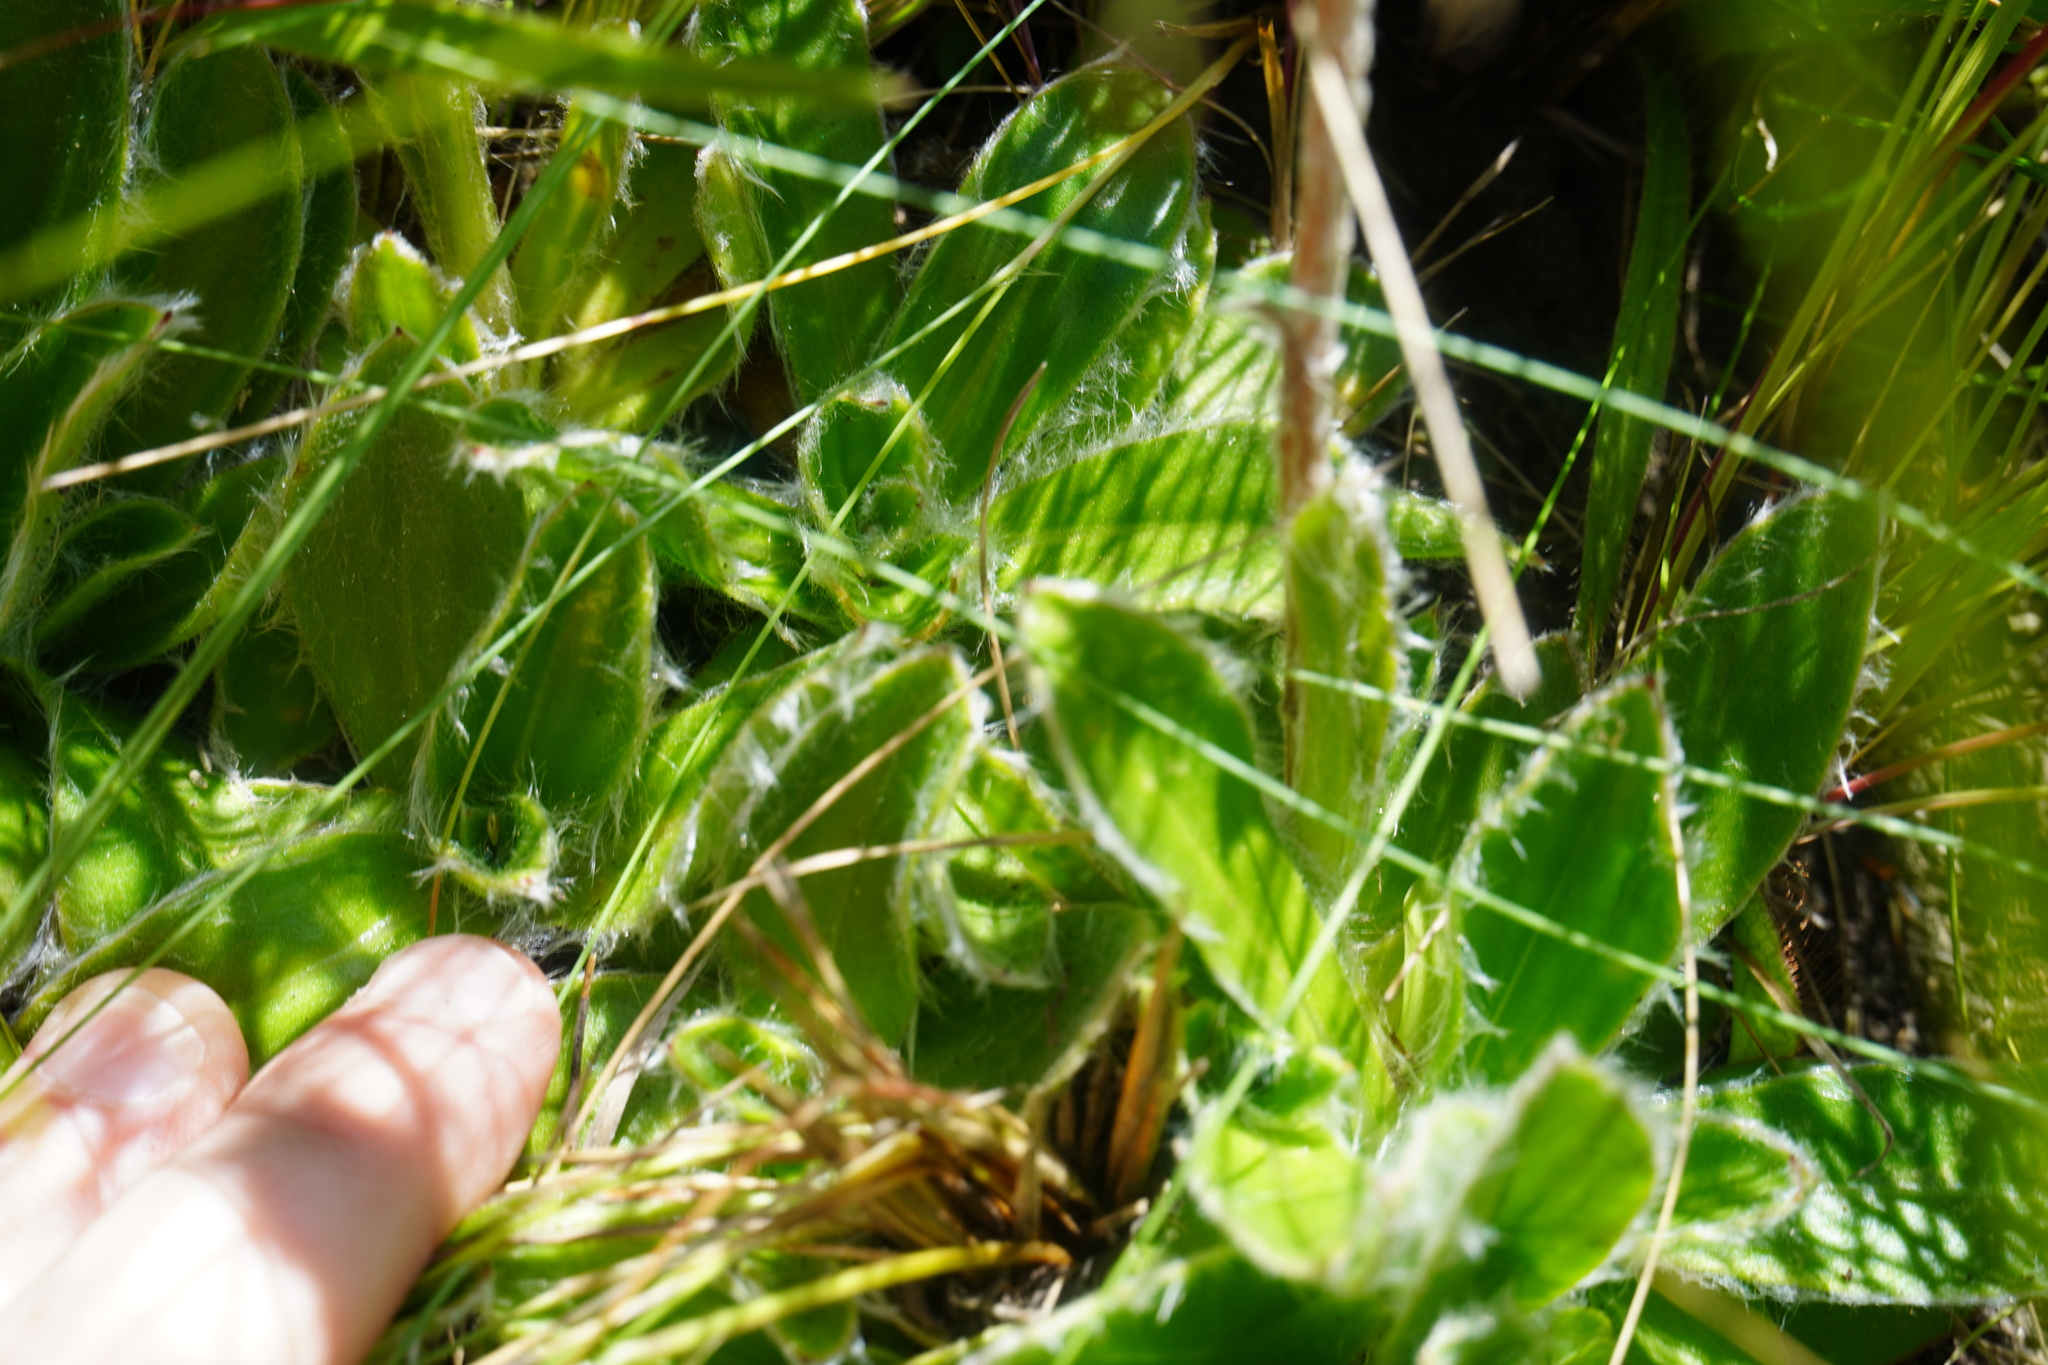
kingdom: Plantae
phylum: Tracheophyta
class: Magnoliopsida
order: Asterales
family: Asteraceae
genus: Helichrysum
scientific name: Helichrysum vernum
